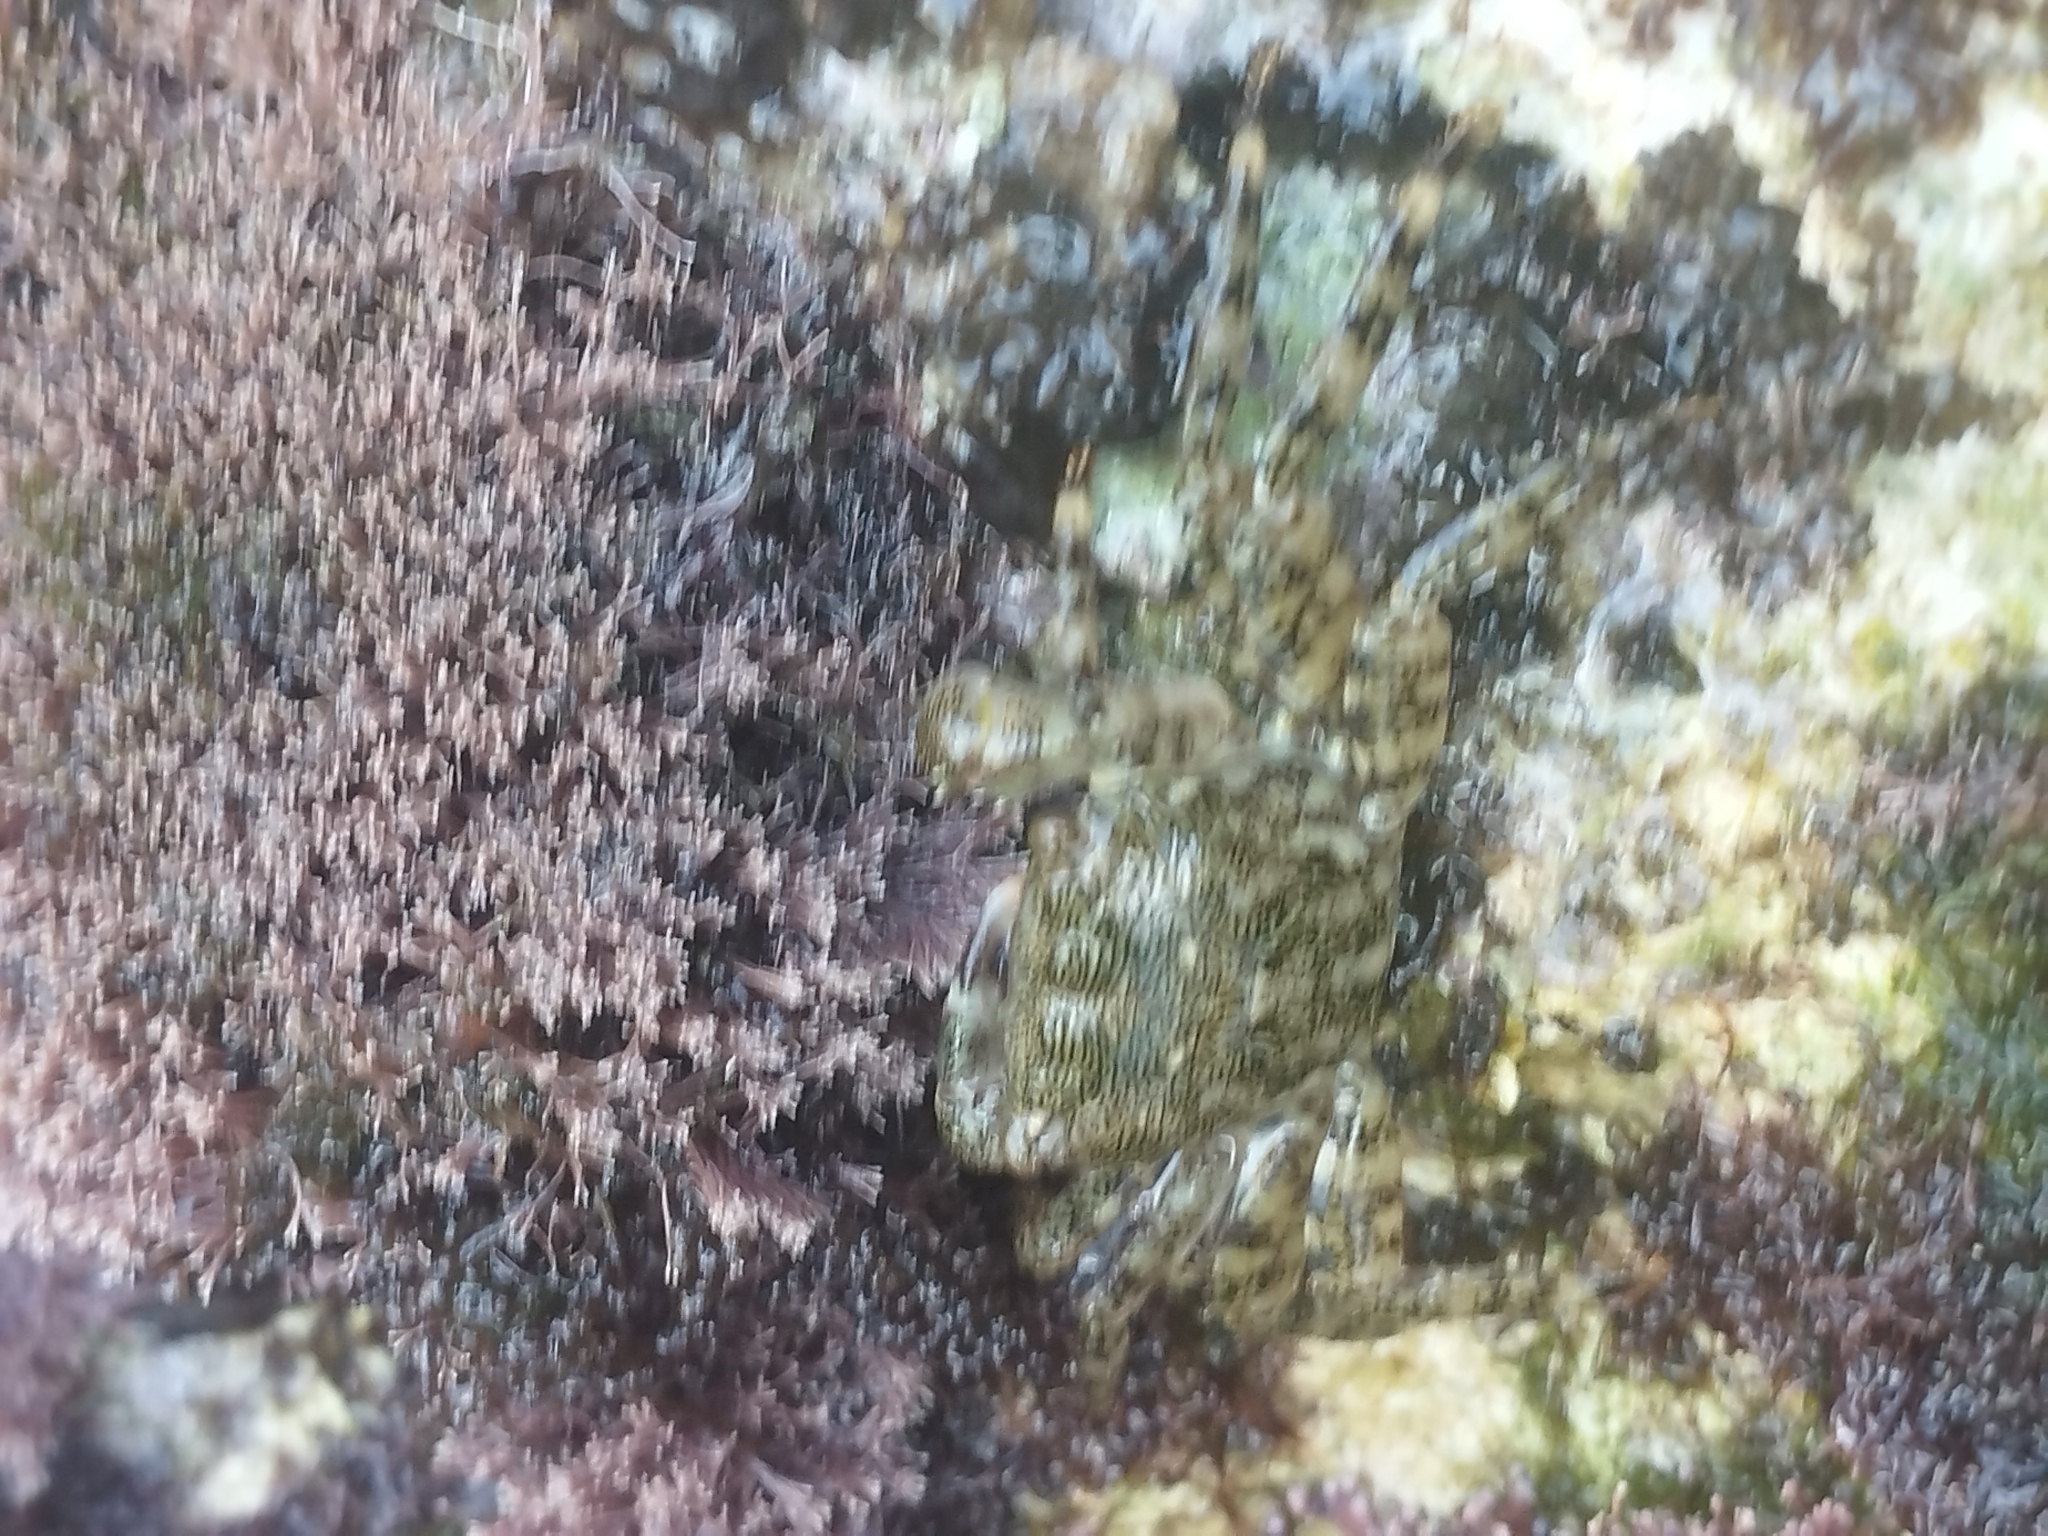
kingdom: Animalia
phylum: Arthropoda
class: Malacostraca
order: Decapoda
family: Grapsidae
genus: Pachygrapsus
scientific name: Pachygrapsus marmoratus
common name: Marbled rock crab
